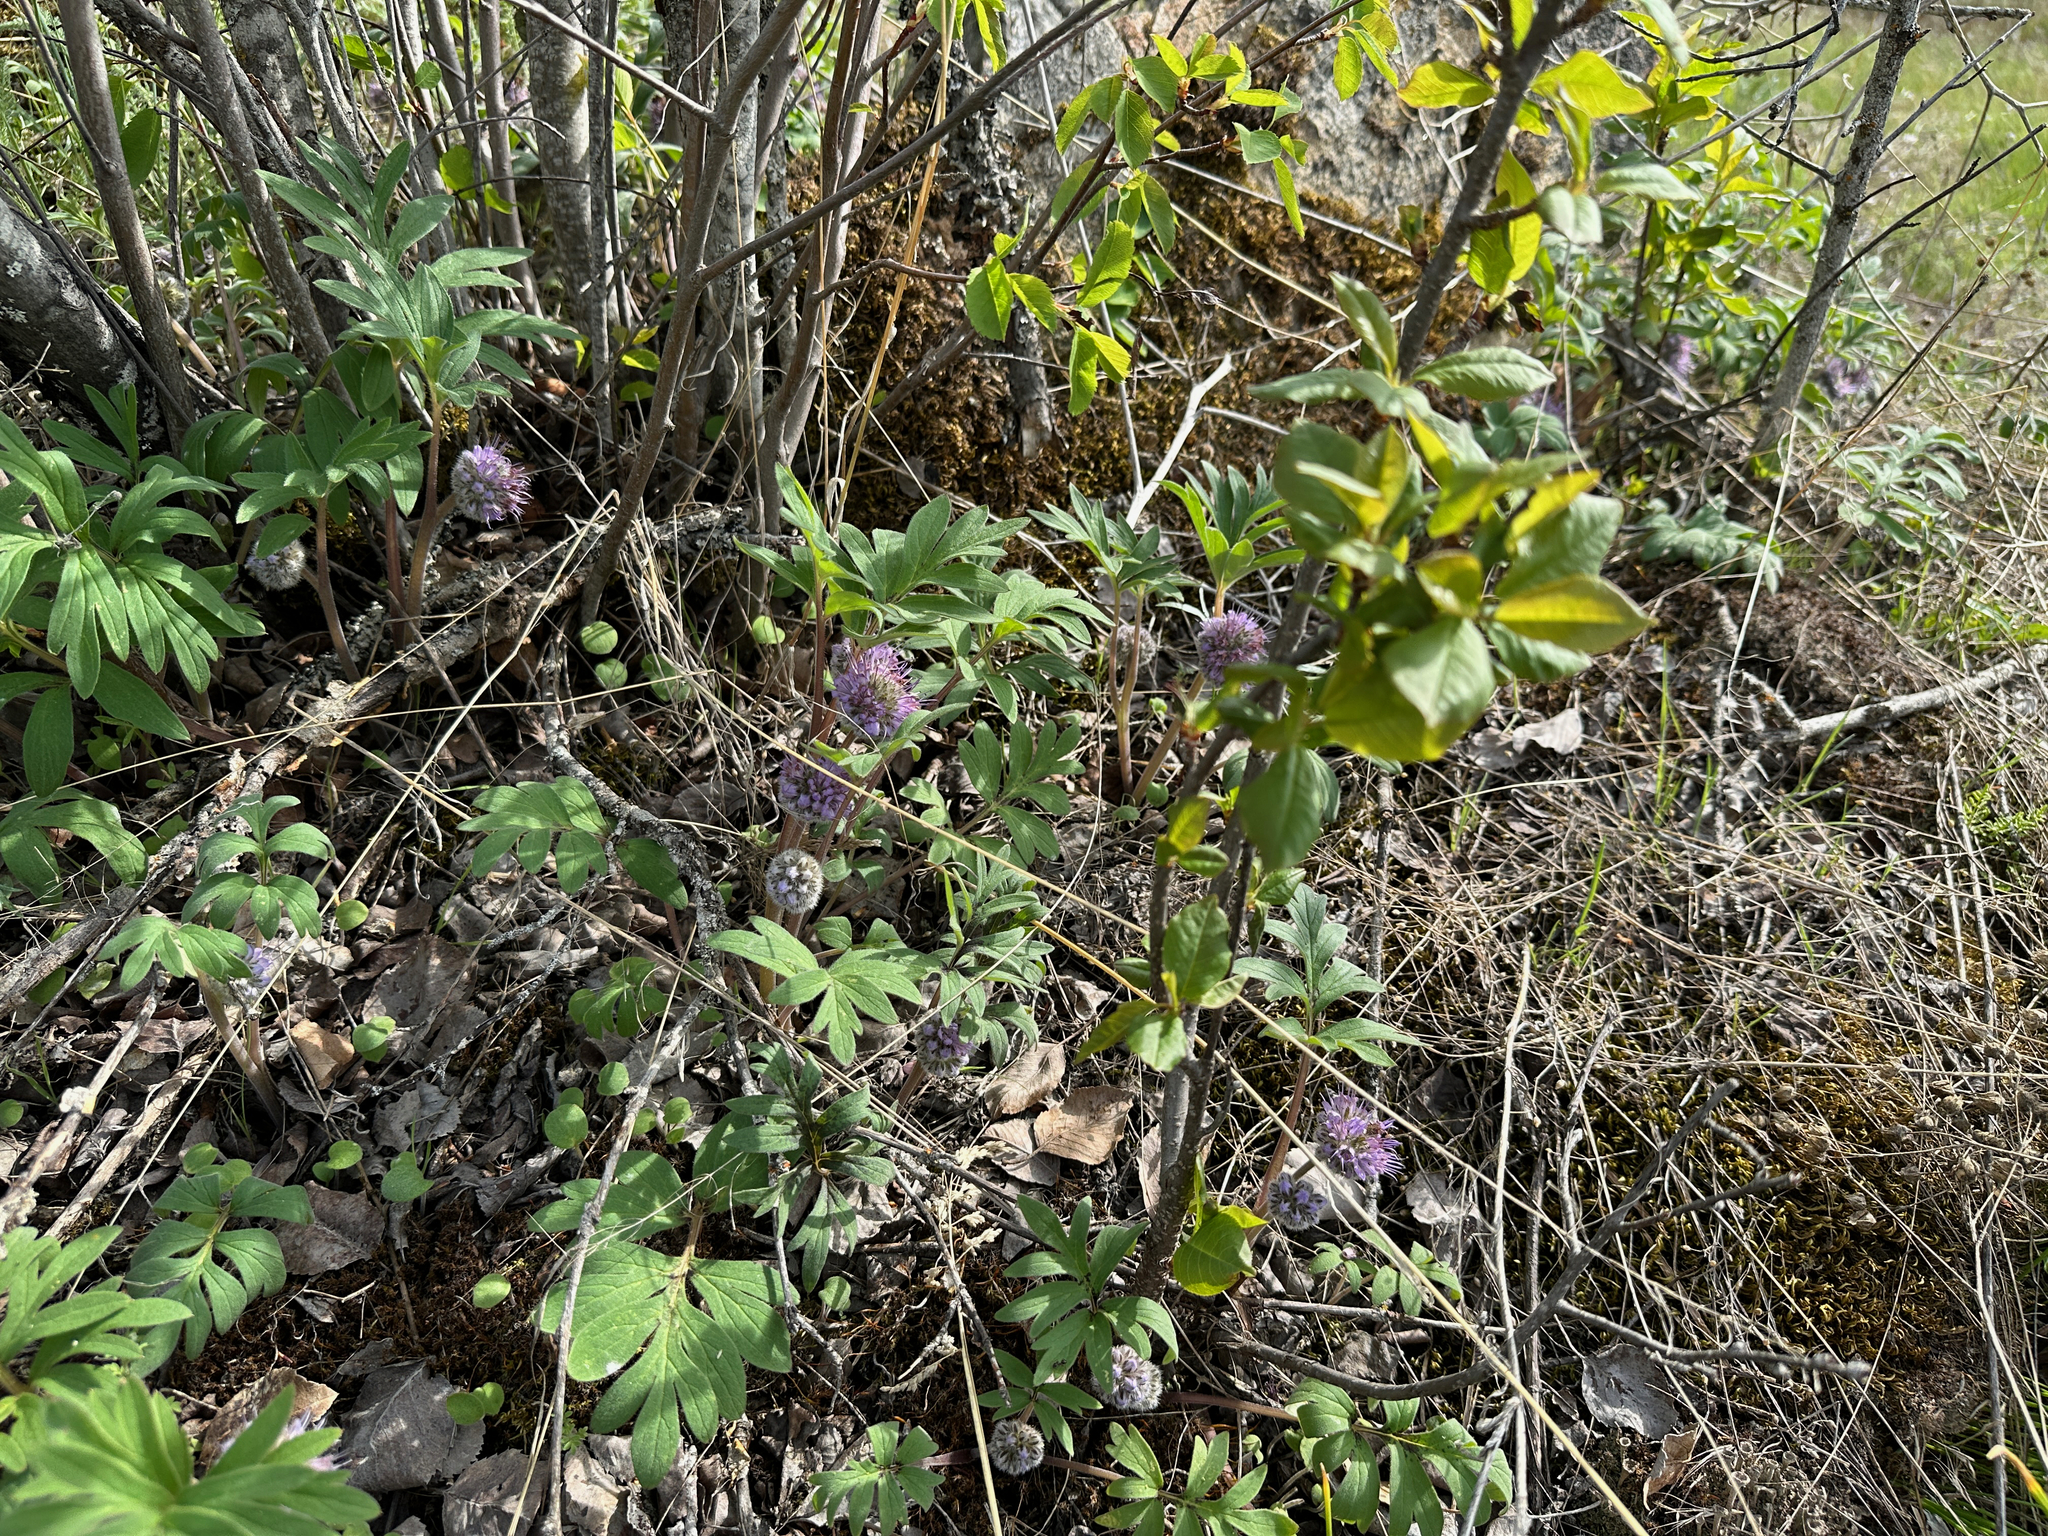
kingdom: Plantae
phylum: Tracheophyta
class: Magnoliopsida
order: Boraginales
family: Hydrophyllaceae
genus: Hydrophyllum
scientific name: Hydrophyllum capitatum
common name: Woollen-breeches
